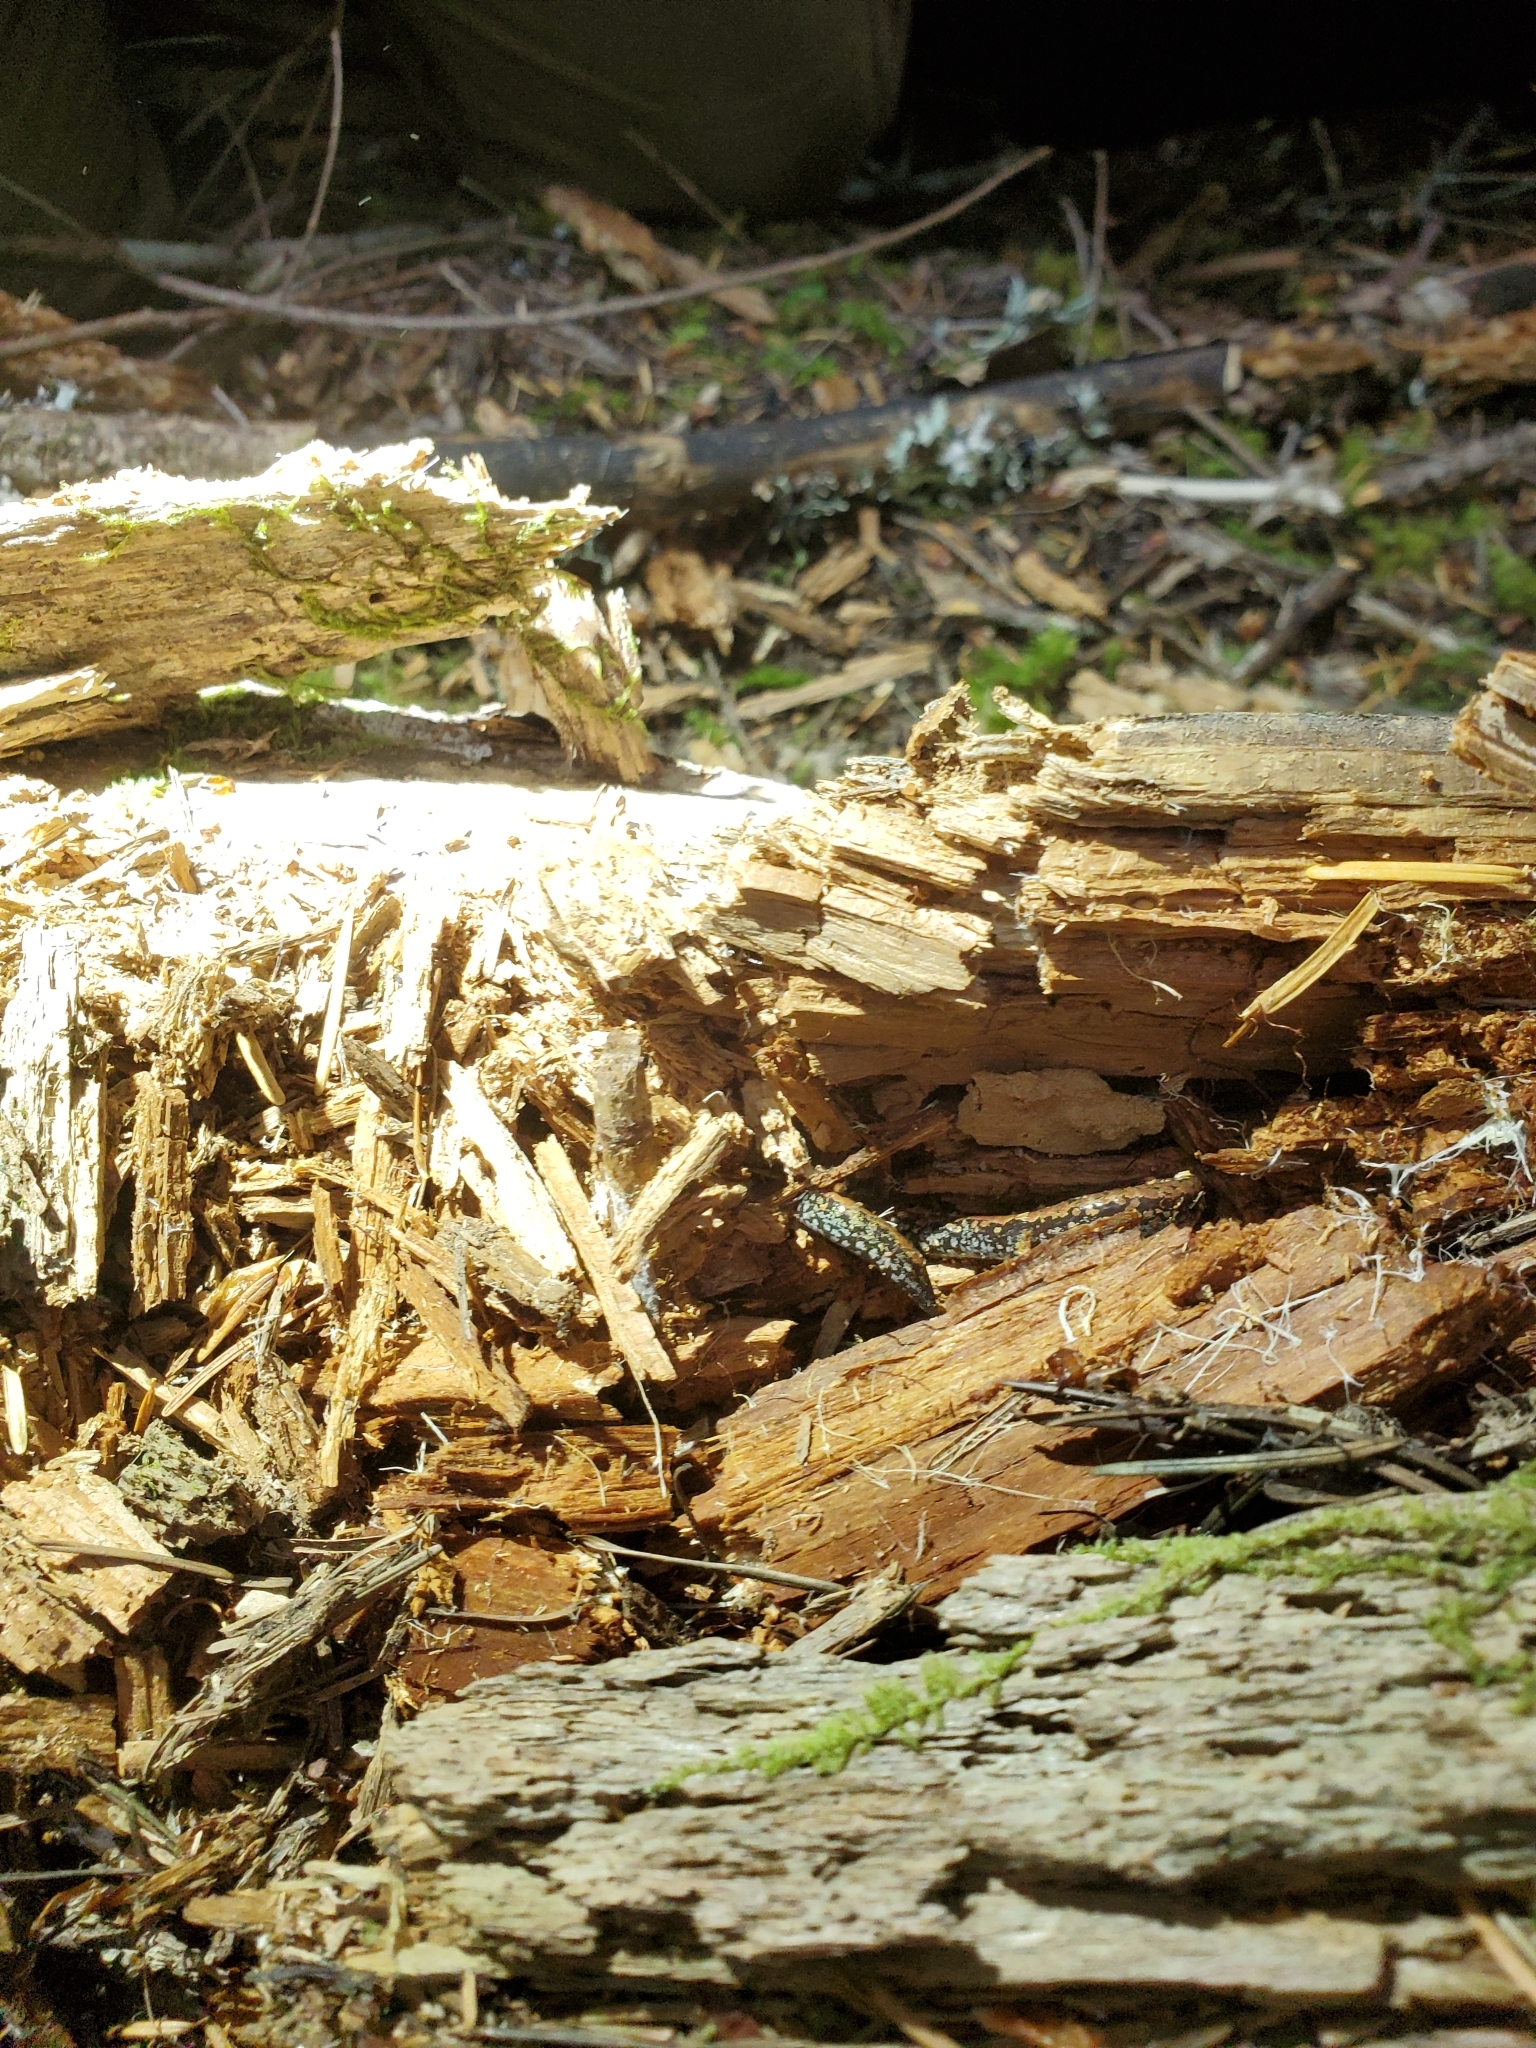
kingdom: Animalia
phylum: Chordata
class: Amphibia
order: Caudata
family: Plethodontidae
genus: Batrachoseps
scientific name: Batrachoseps wrighti
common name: Oregon slender salamander
